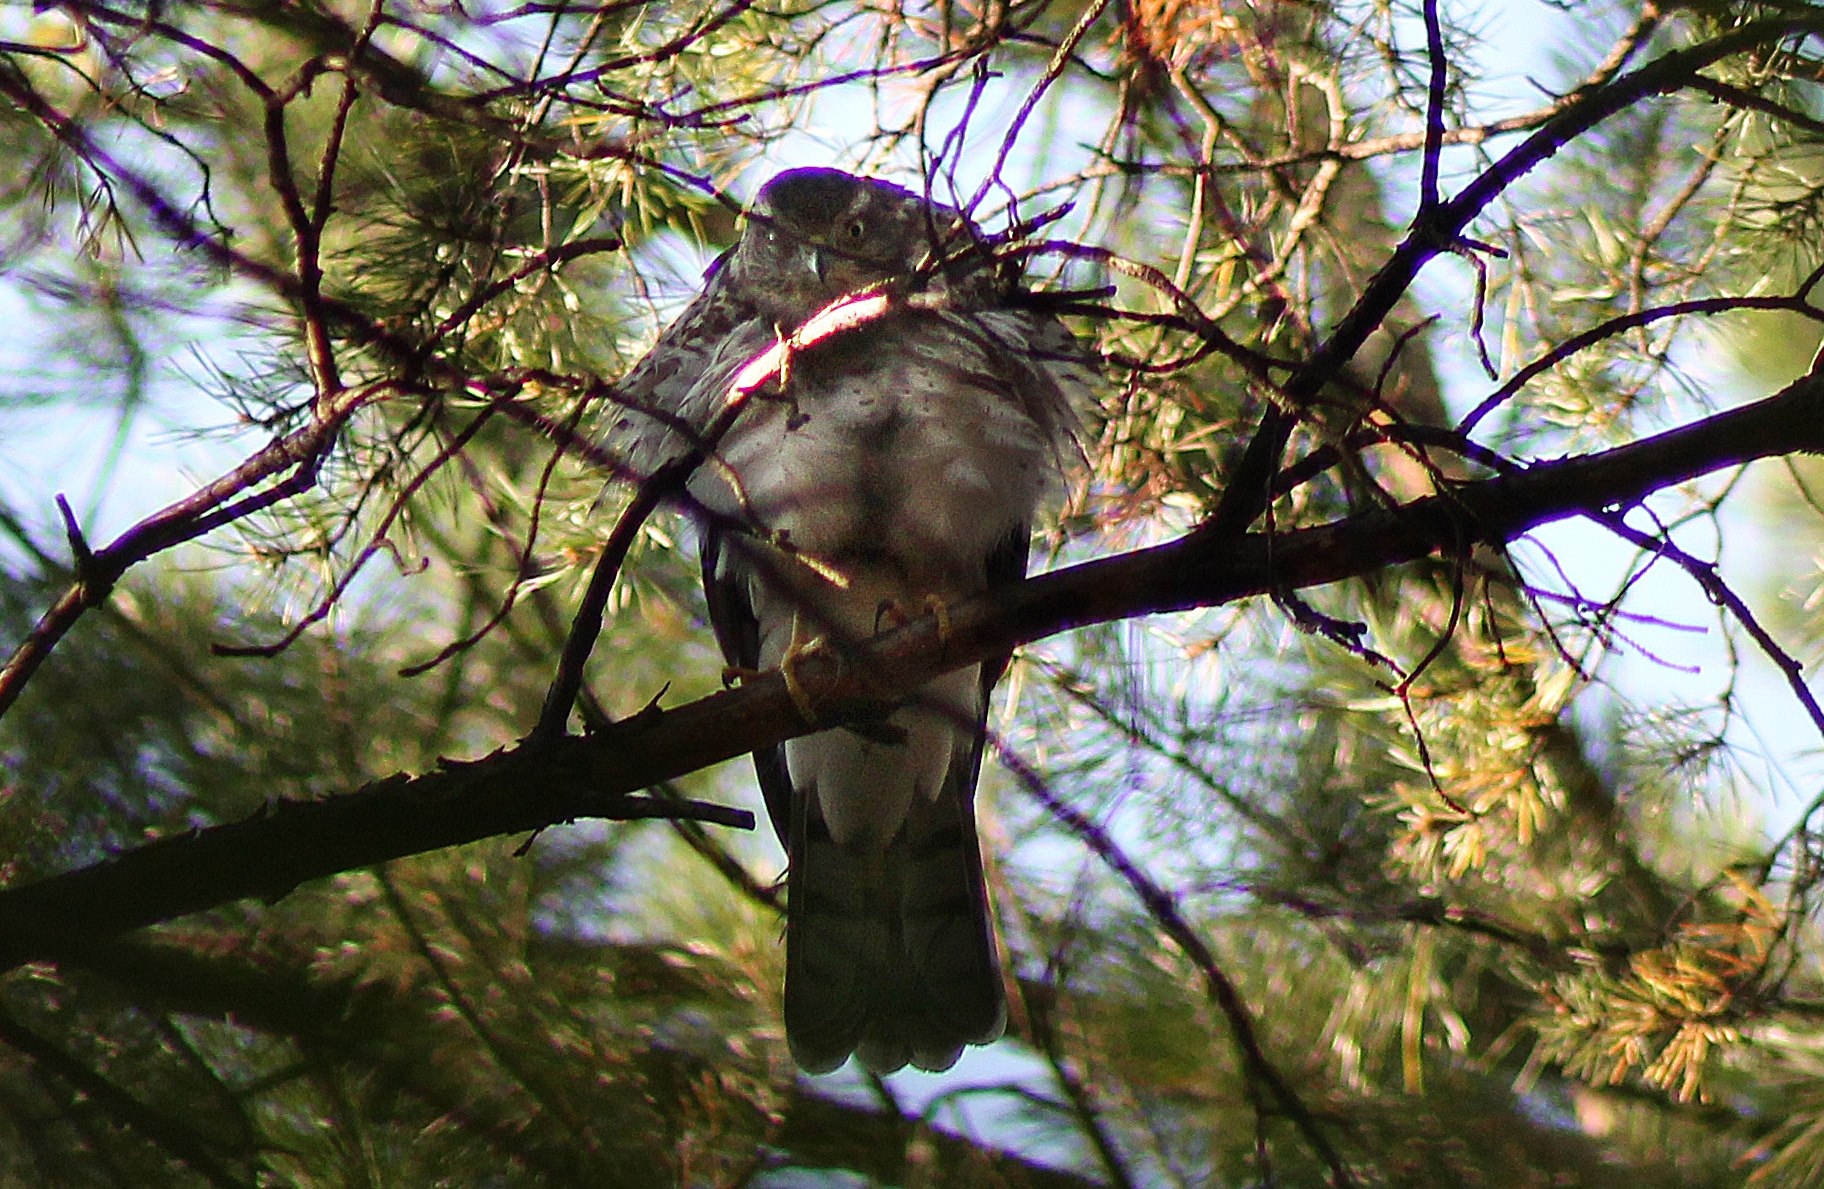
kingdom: Animalia
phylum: Chordata
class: Aves
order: Accipitriformes
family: Accipitridae
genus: Accipiter
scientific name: Accipiter nisus
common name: Eurasian sparrowhawk
